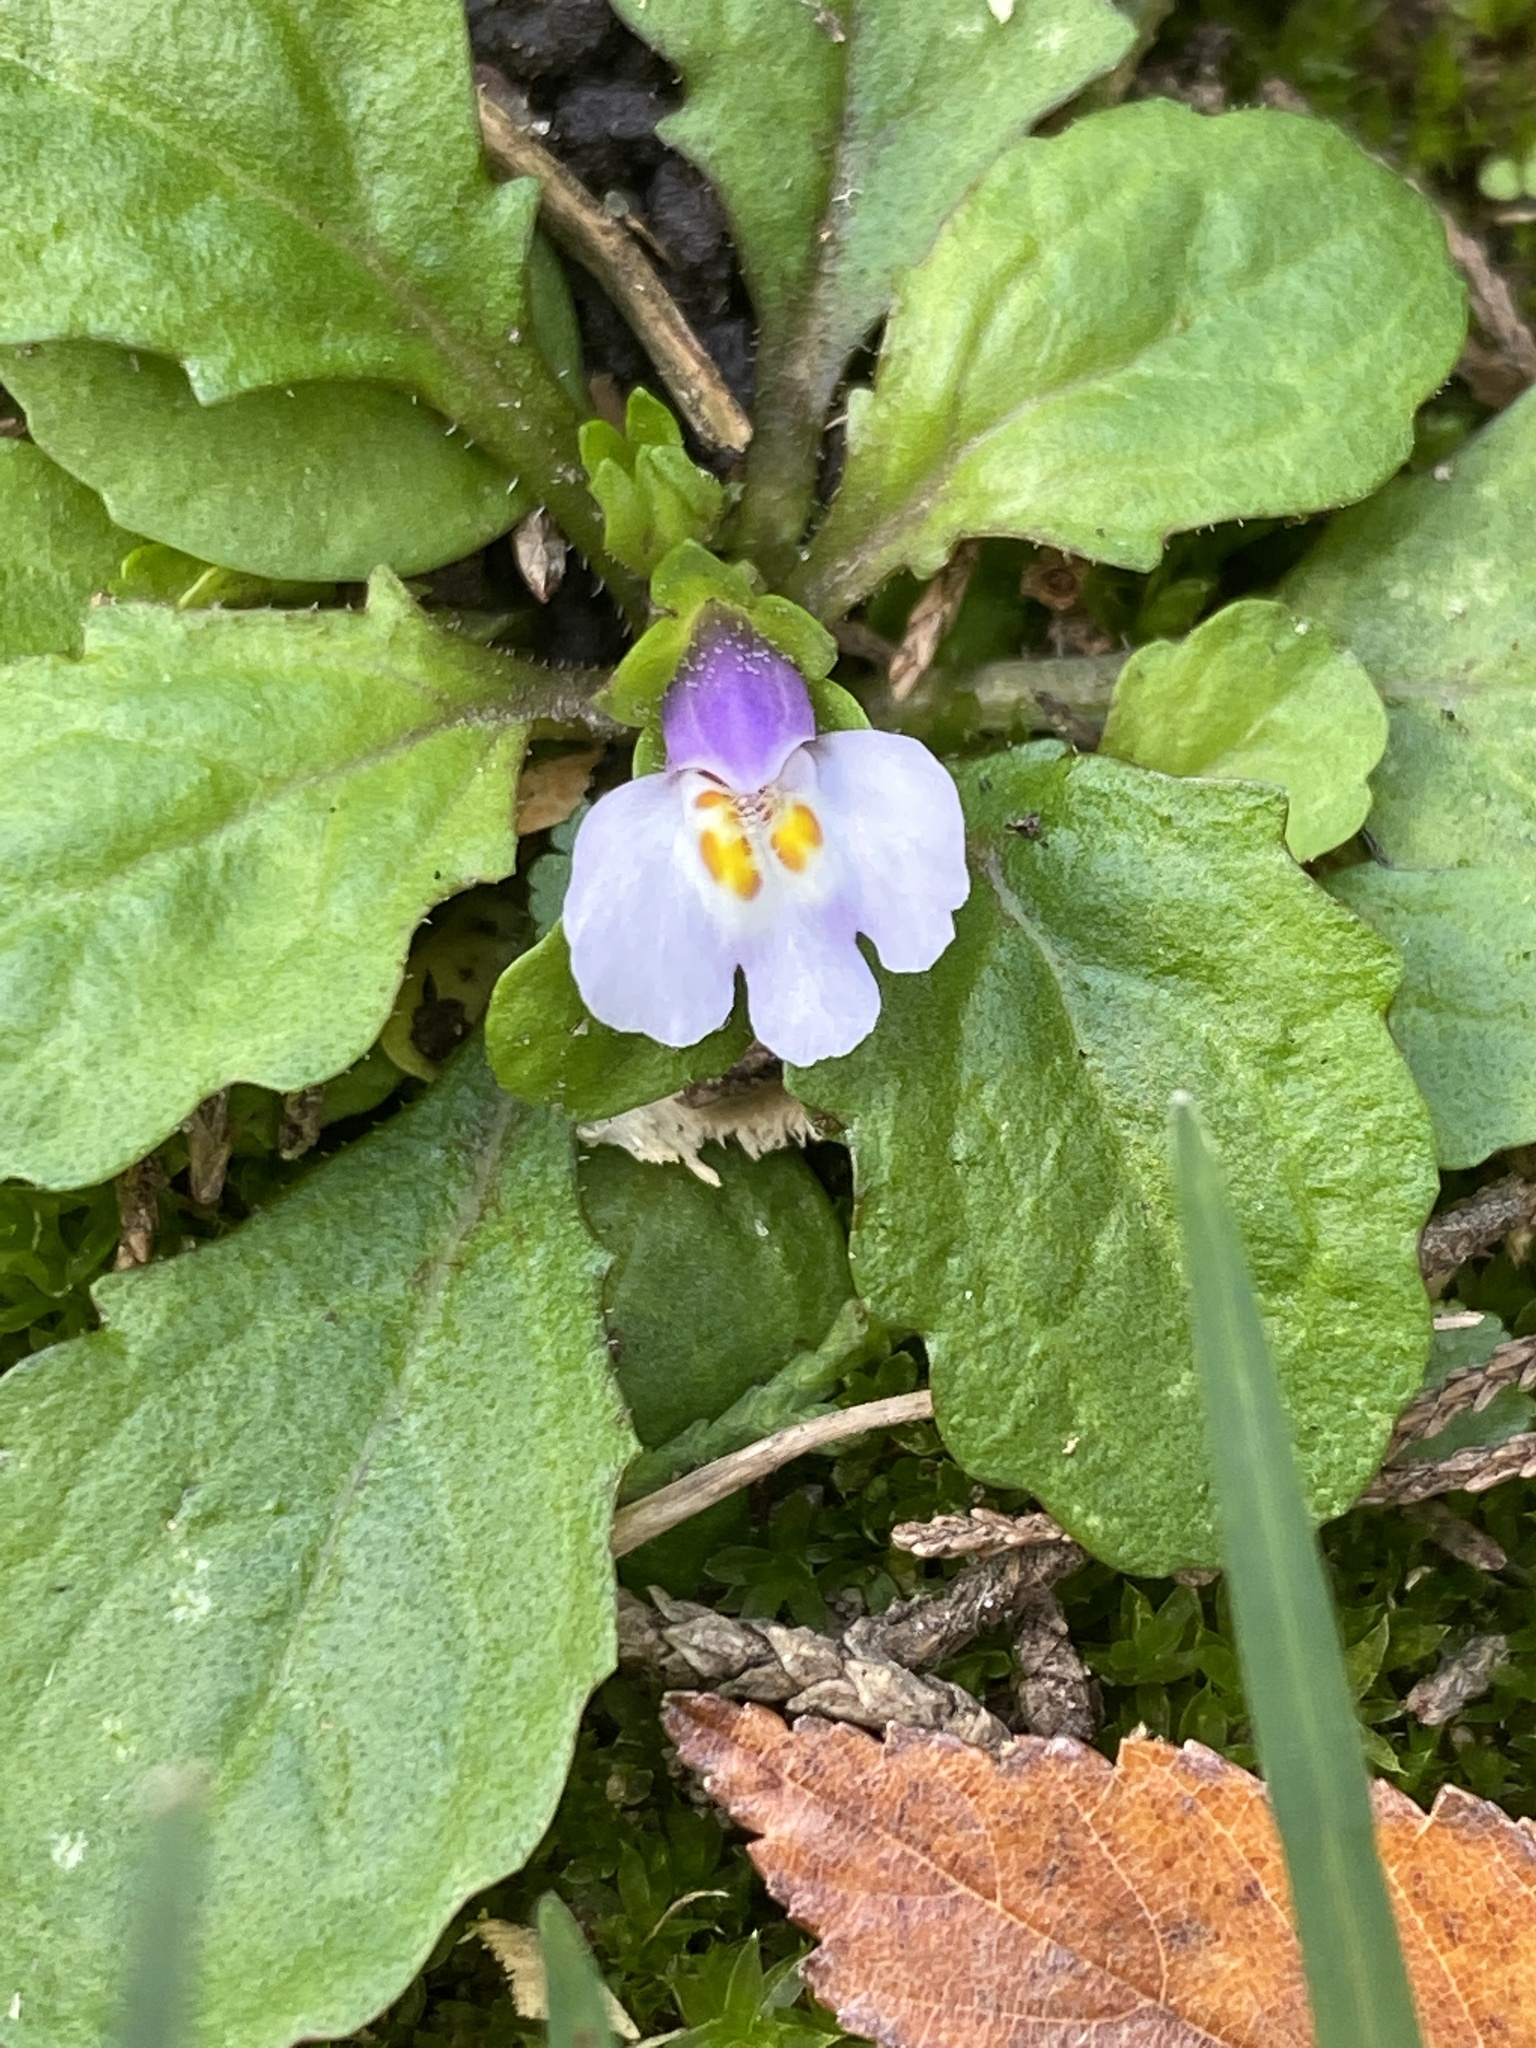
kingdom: Plantae
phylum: Tracheophyta
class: Magnoliopsida
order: Lamiales
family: Mazaceae
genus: Mazus
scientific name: Mazus pumilus
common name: Japanese mazus
